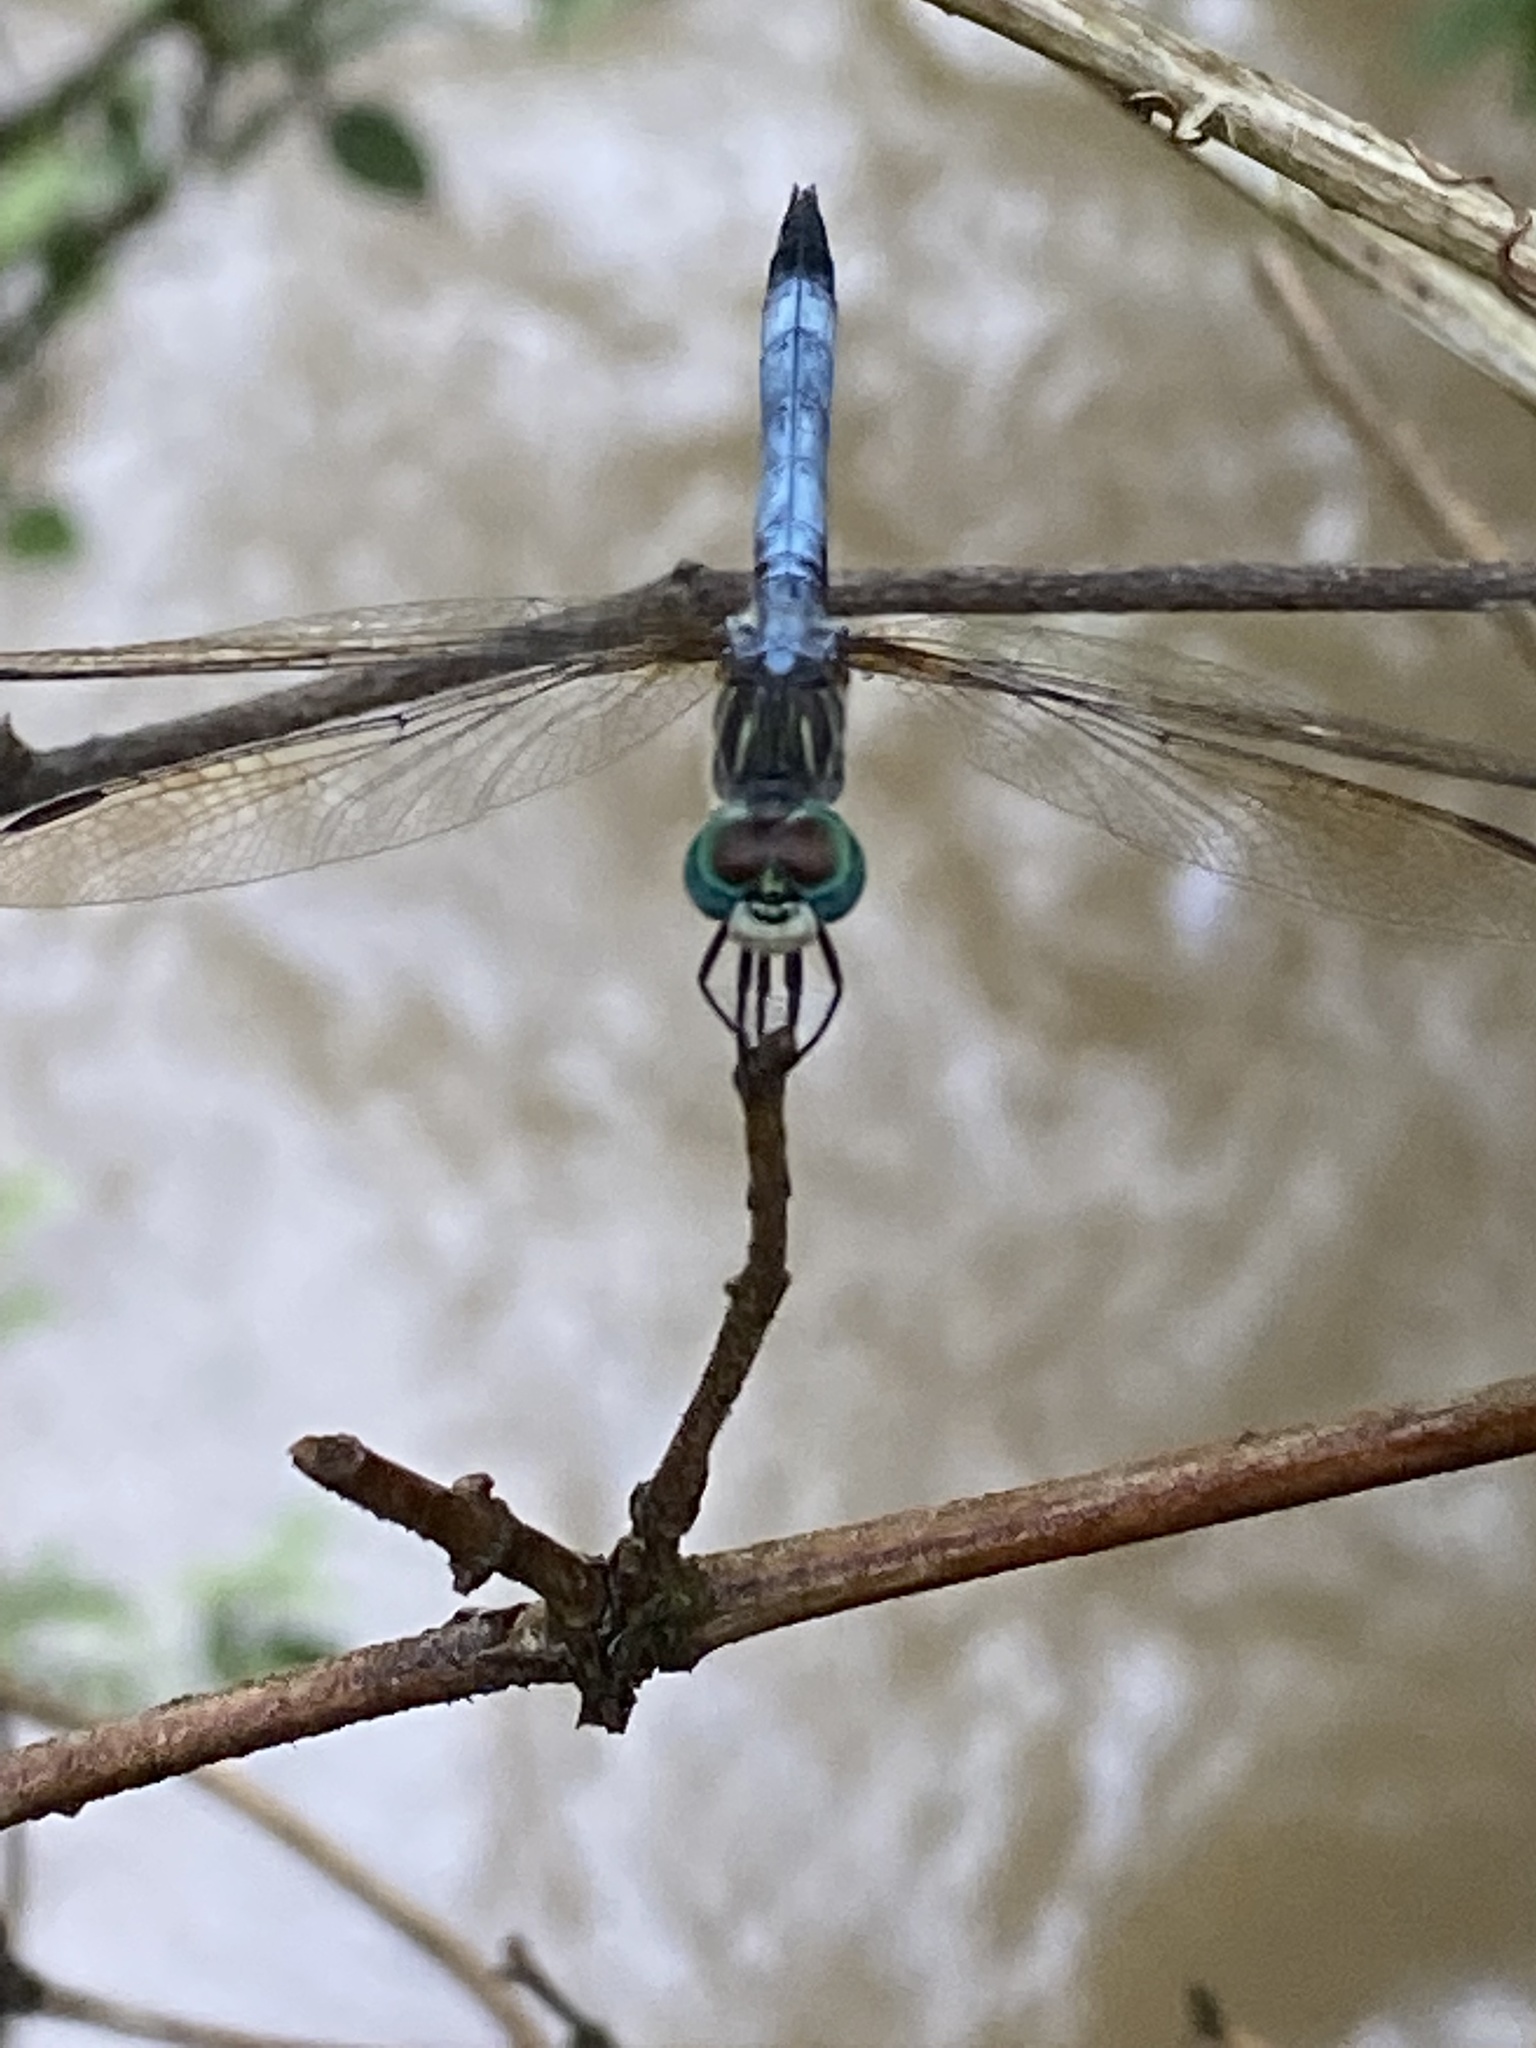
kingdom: Animalia
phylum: Arthropoda
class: Insecta
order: Odonata
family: Libellulidae
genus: Pachydiplax
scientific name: Pachydiplax longipennis
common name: Blue dasher
